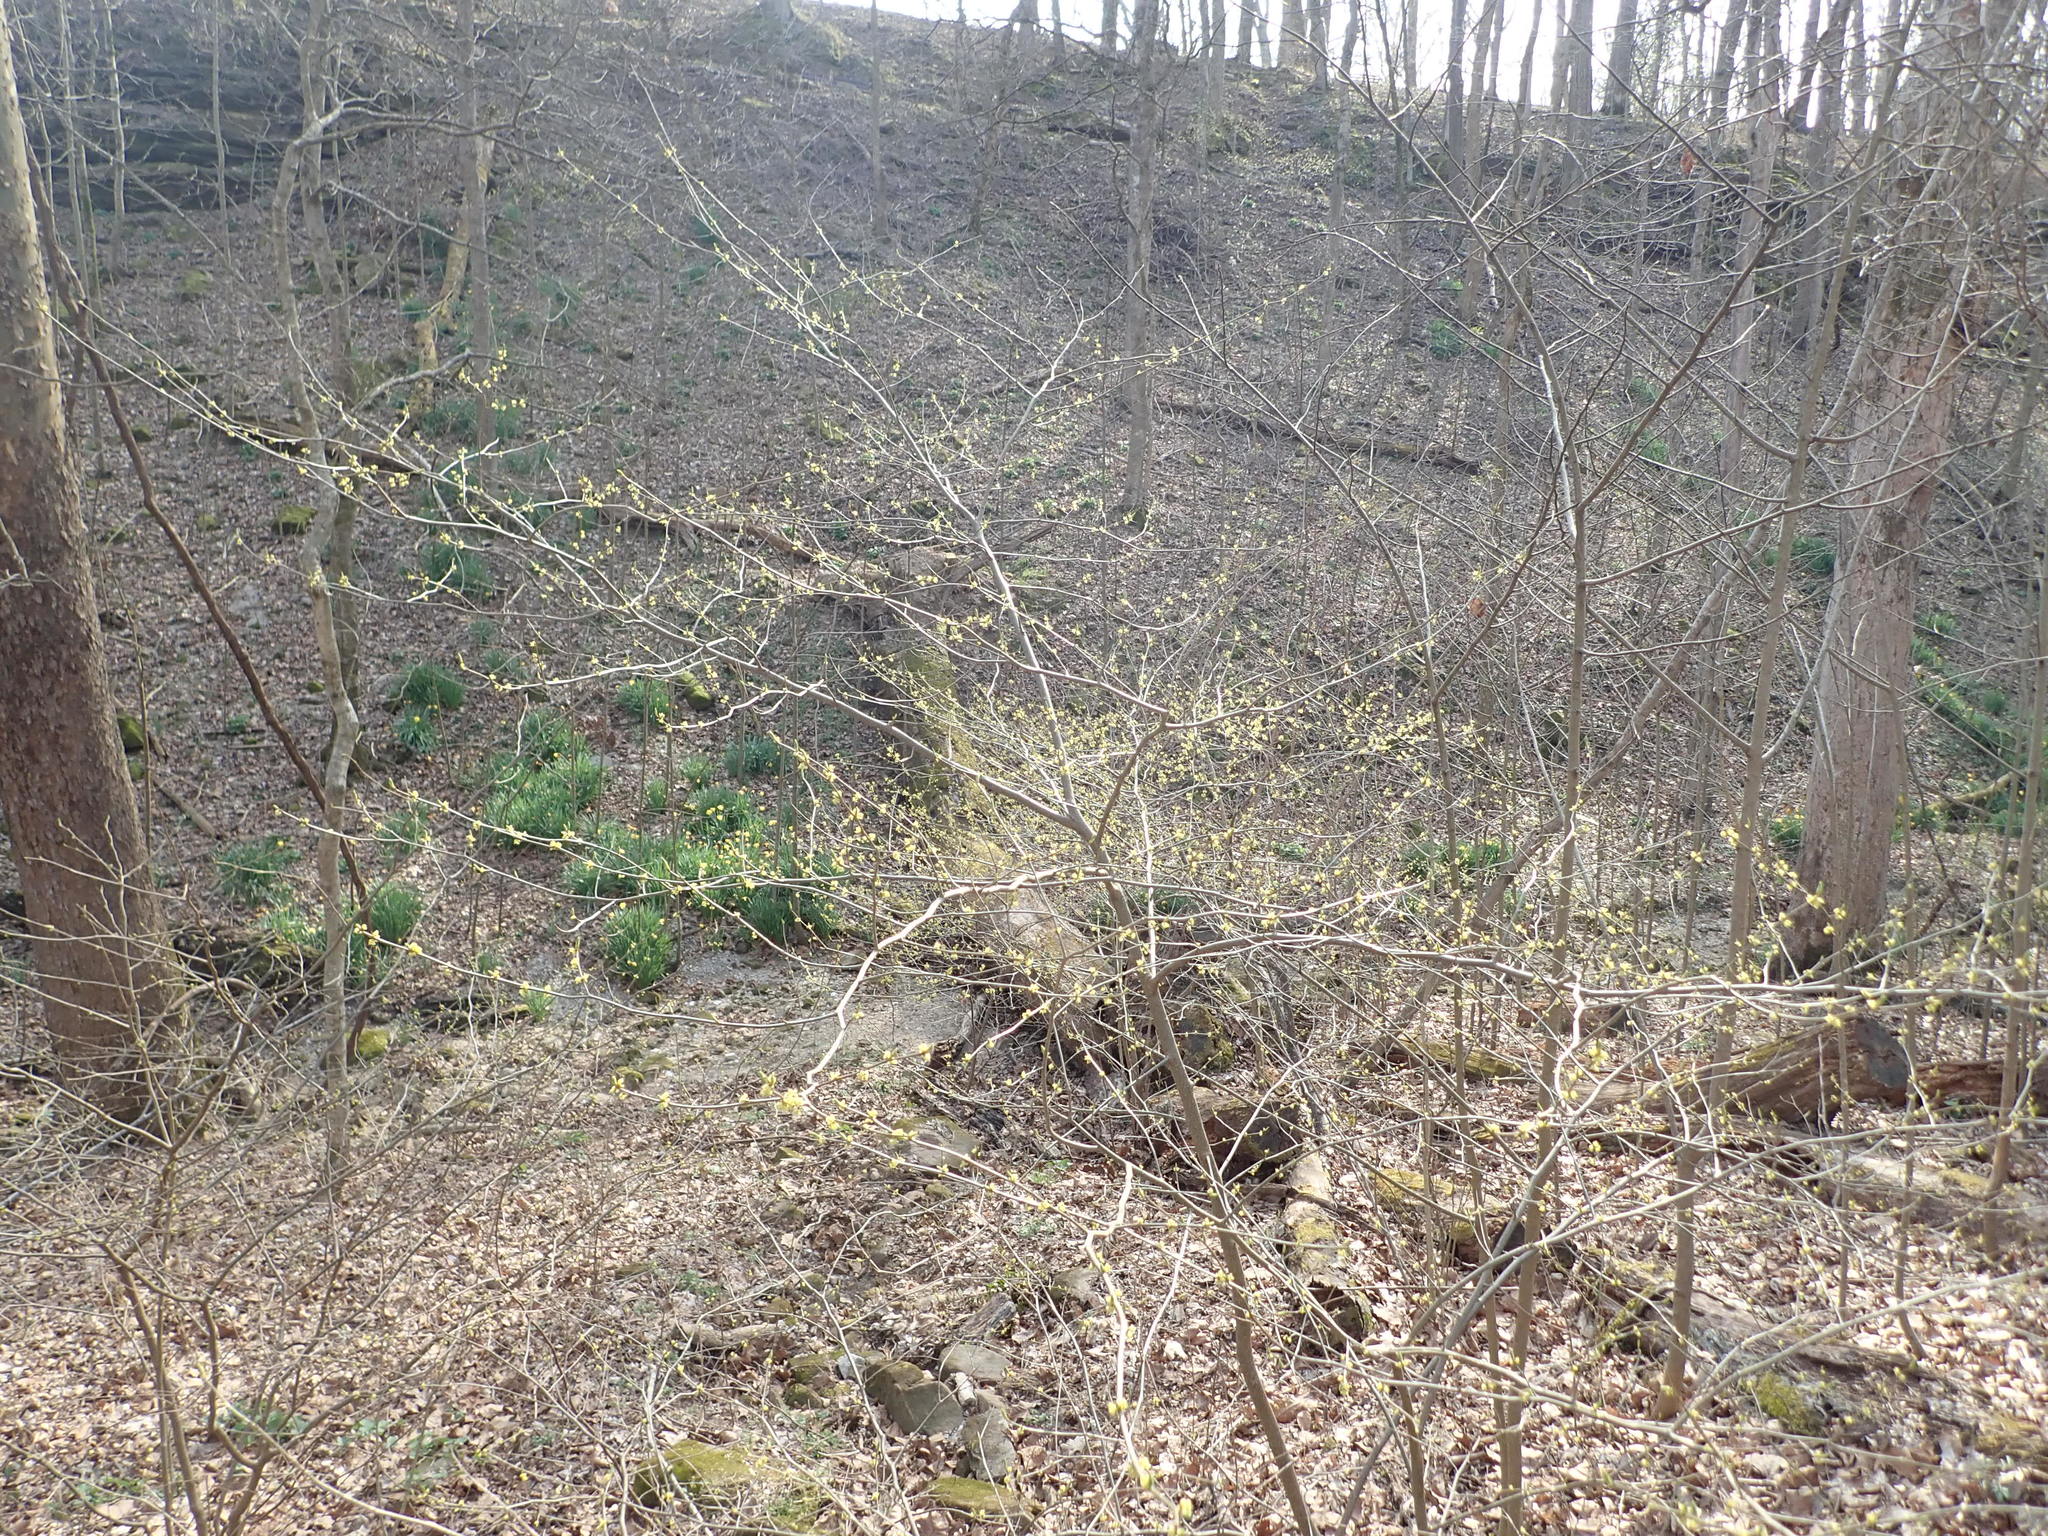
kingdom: Plantae
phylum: Tracheophyta
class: Magnoliopsida
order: Laurales
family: Lauraceae
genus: Lindera
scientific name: Lindera benzoin
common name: Spicebush
